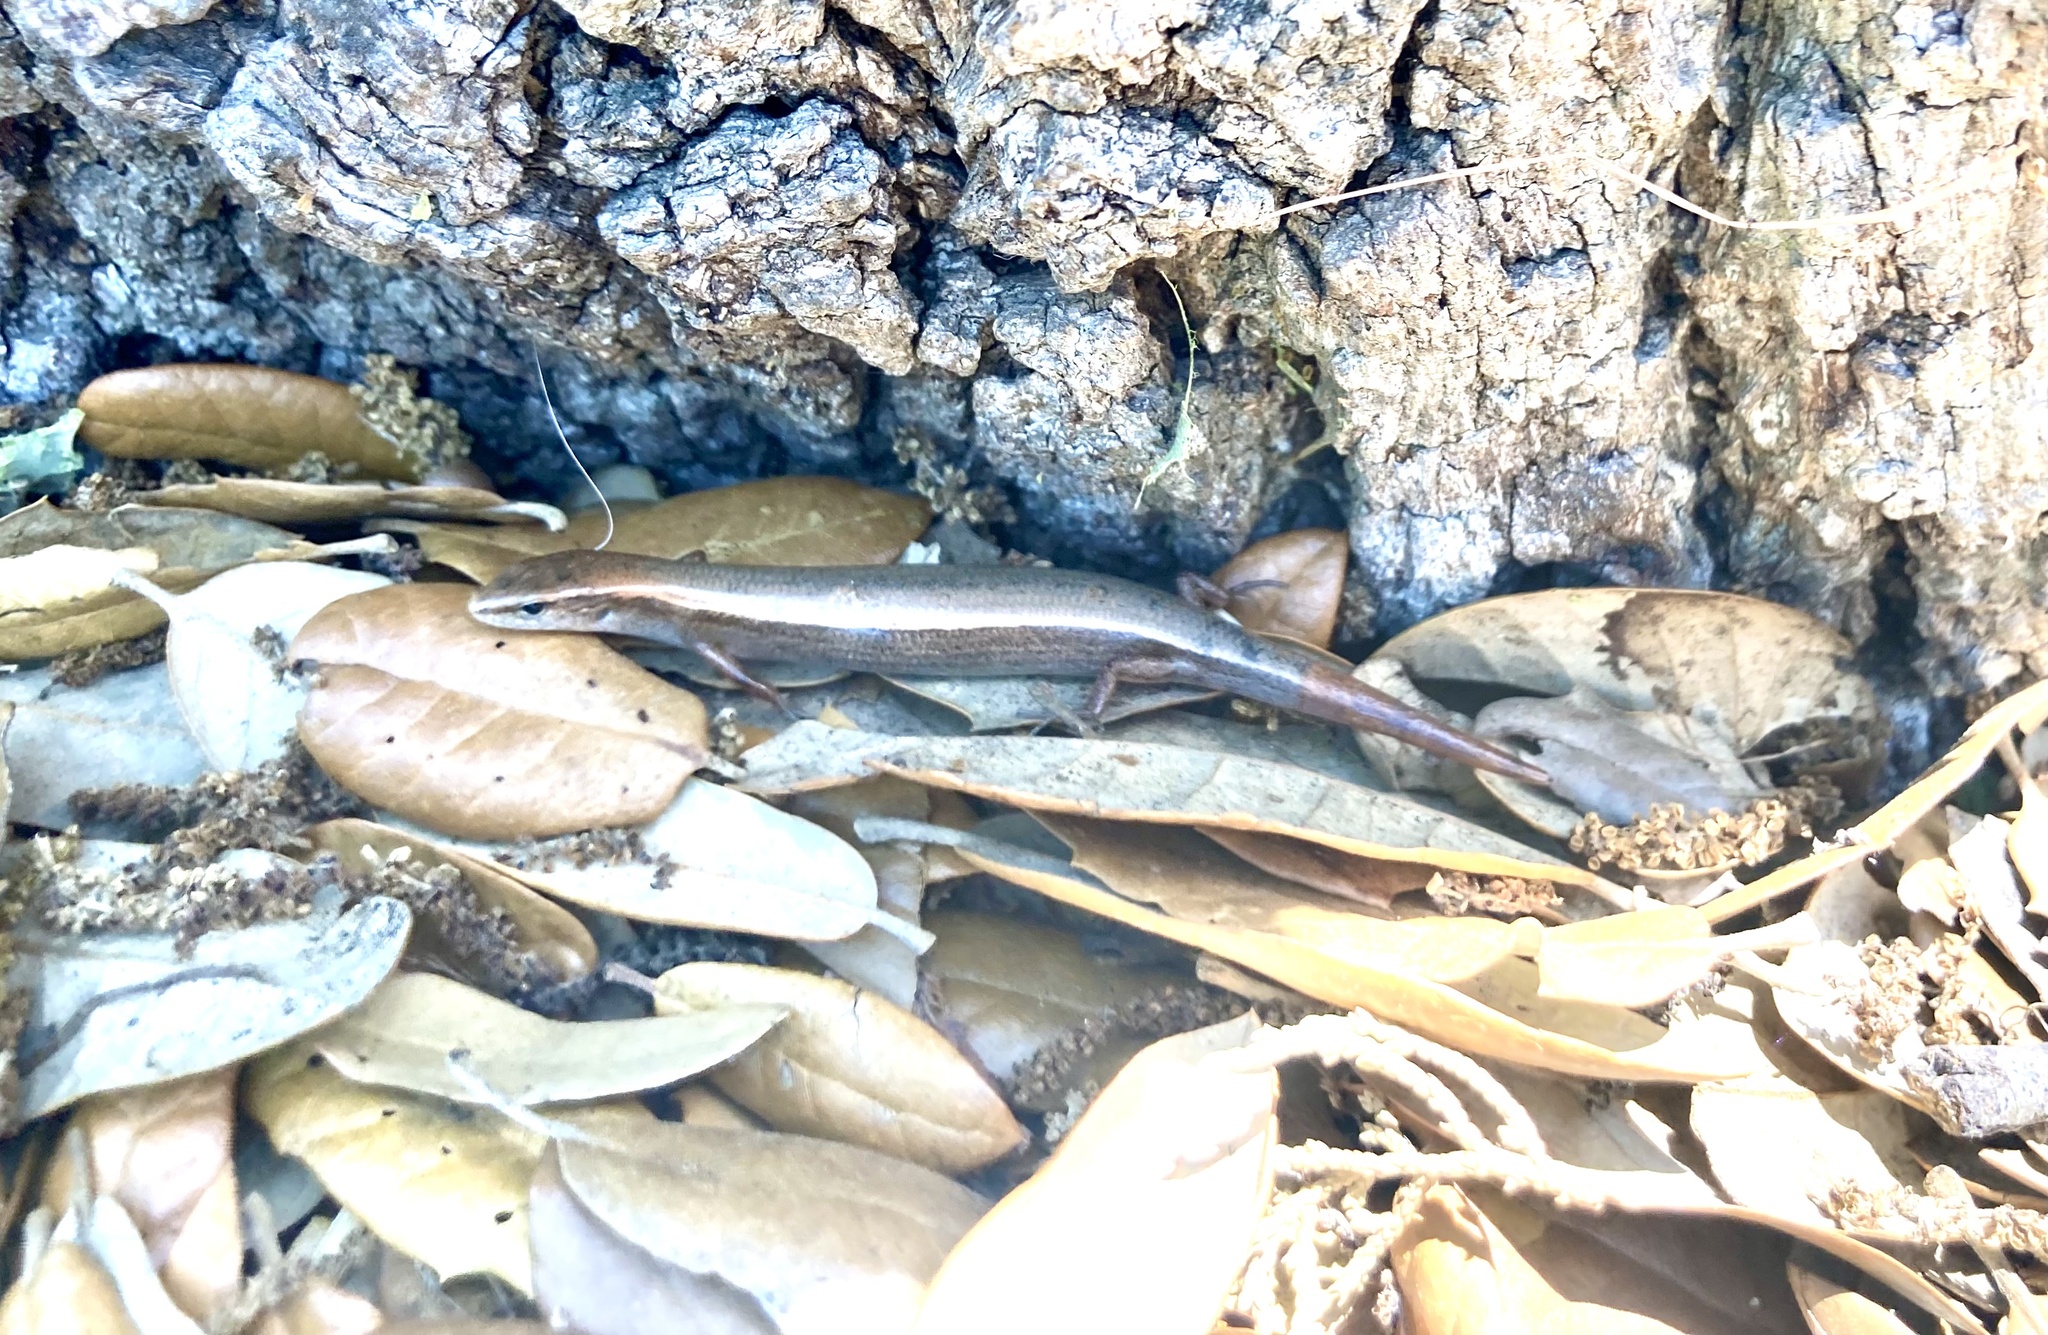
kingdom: Animalia
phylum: Chordata
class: Squamata
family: Scincidae
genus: Scincella
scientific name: Scincella lateralis
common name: Ground skink
